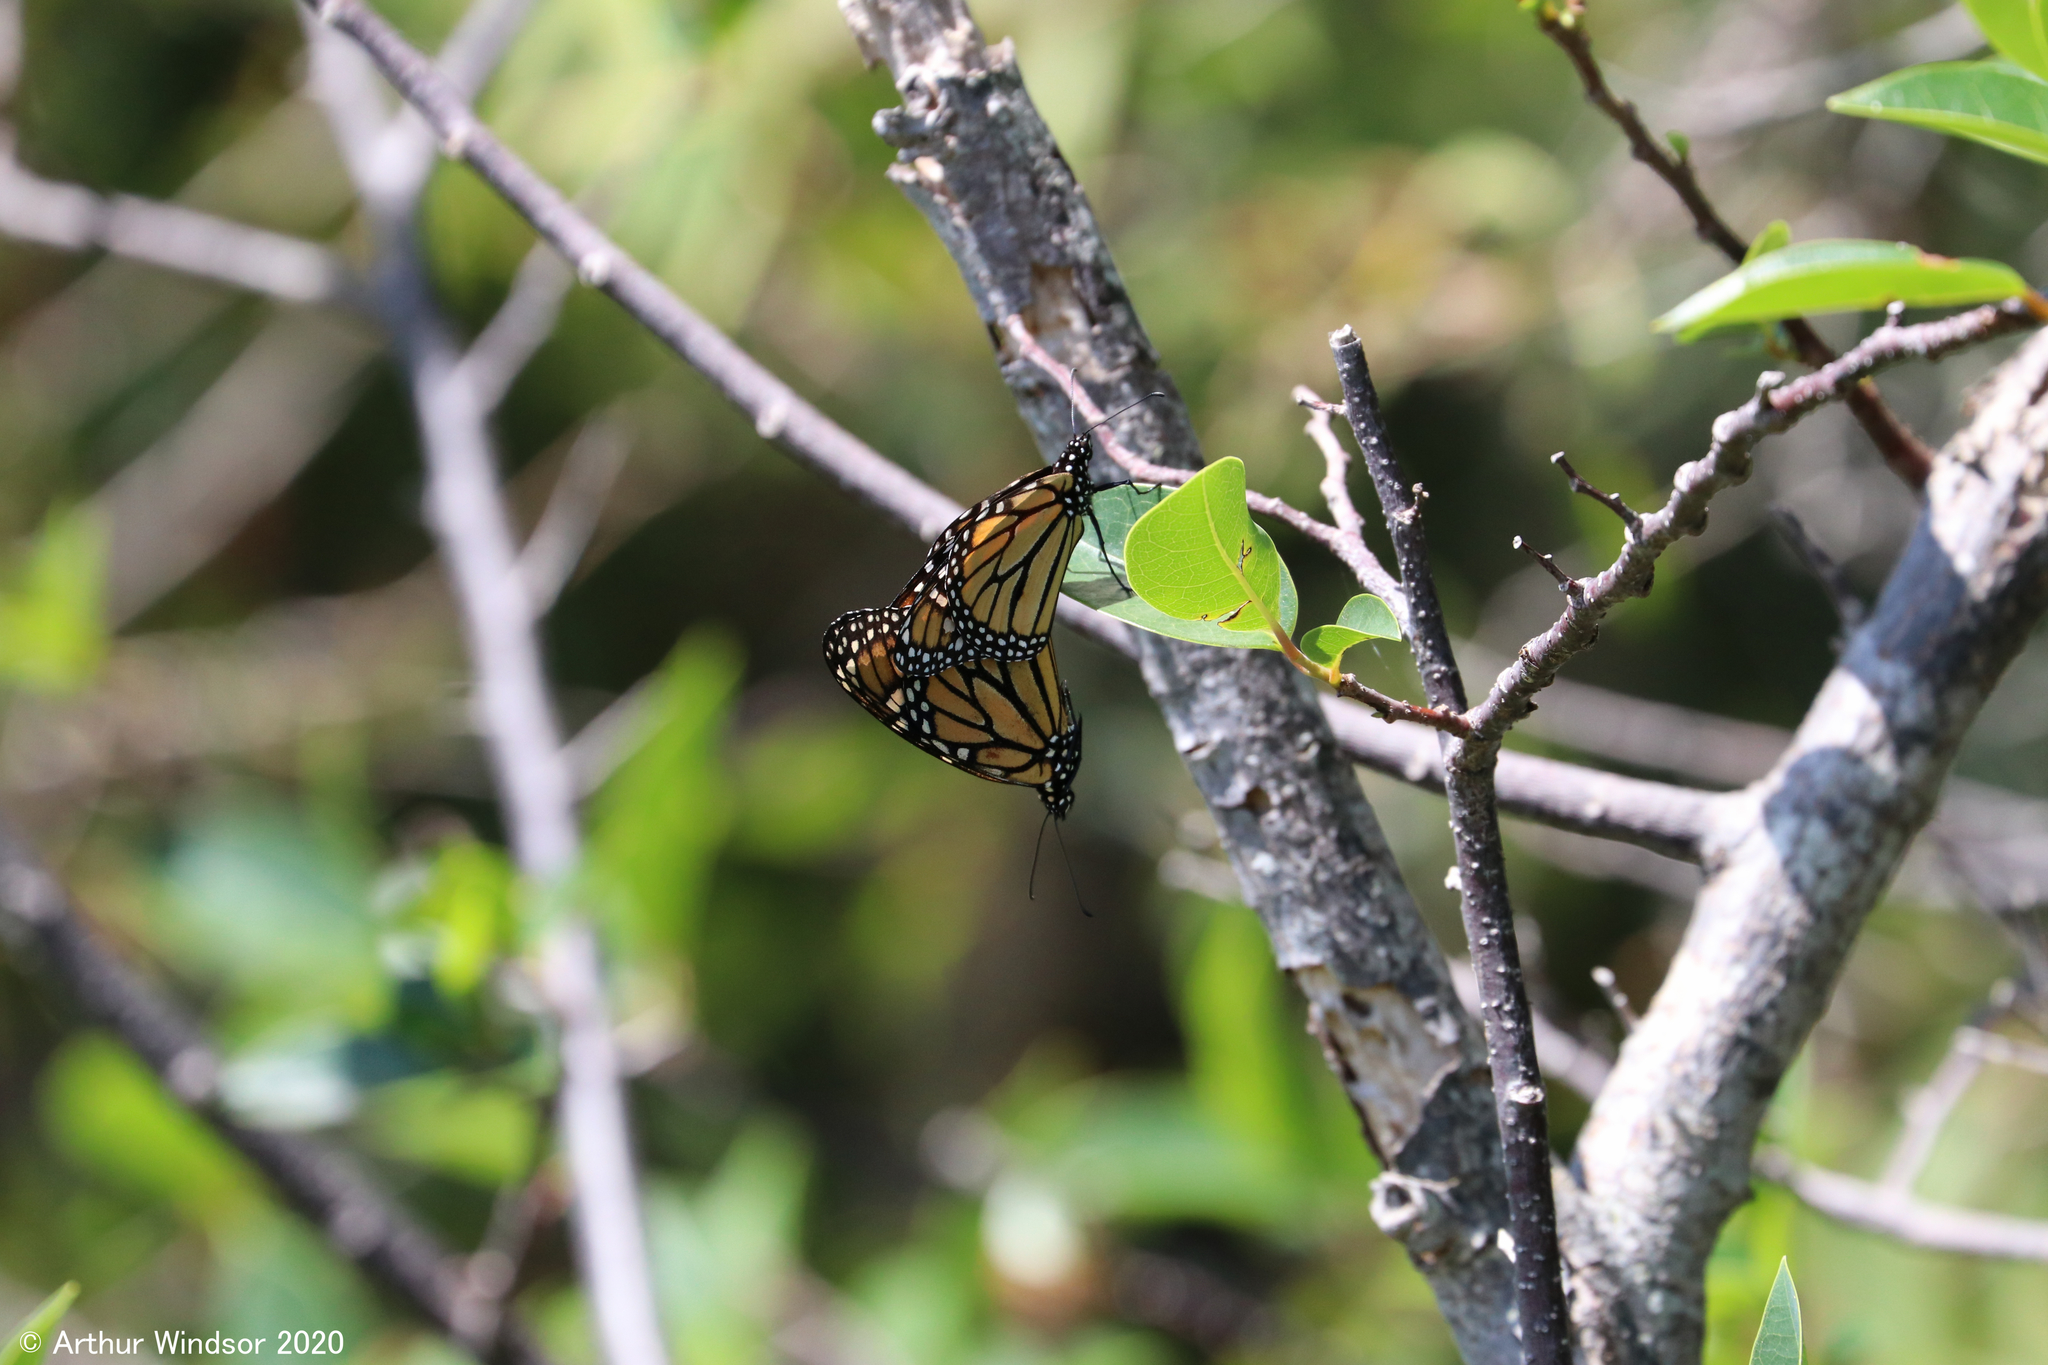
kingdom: Animalia
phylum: Arthropoda
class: Insecta
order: Lepidoptera
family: Nymphalidae
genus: Danaus
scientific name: Danaus plexippus
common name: Monarch
